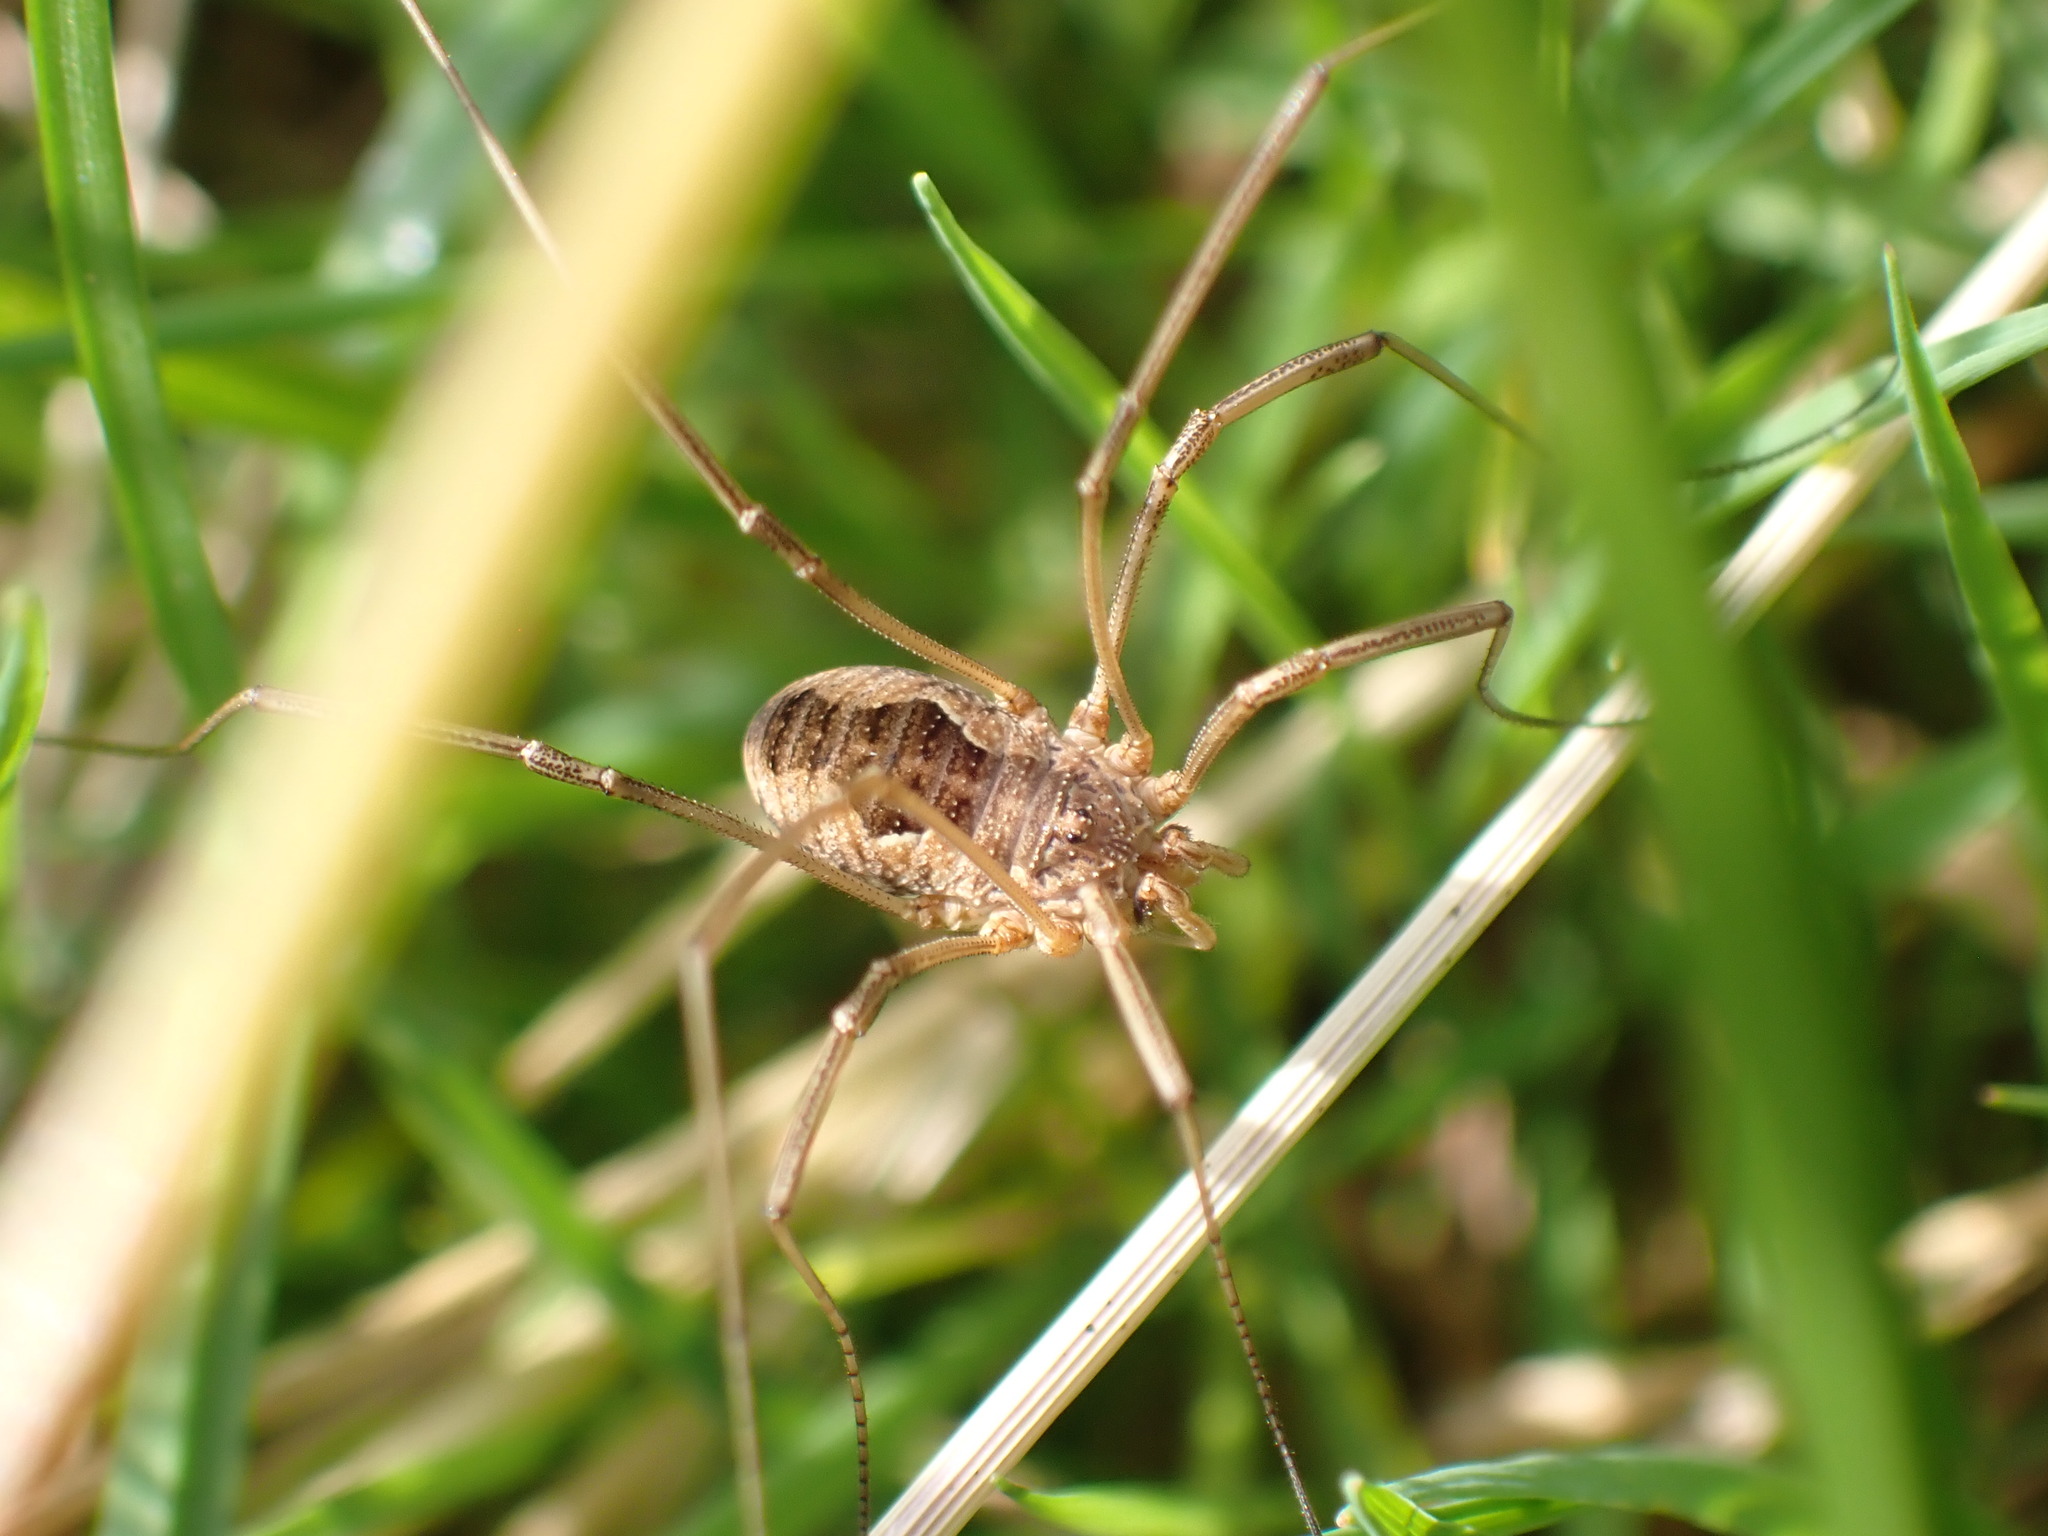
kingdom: Animalia
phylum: Arthropoda
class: Arachnida
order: Opiliones
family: Phalangiidae
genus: Phalangium
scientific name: Phalangium opilio
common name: Daddy longleg
